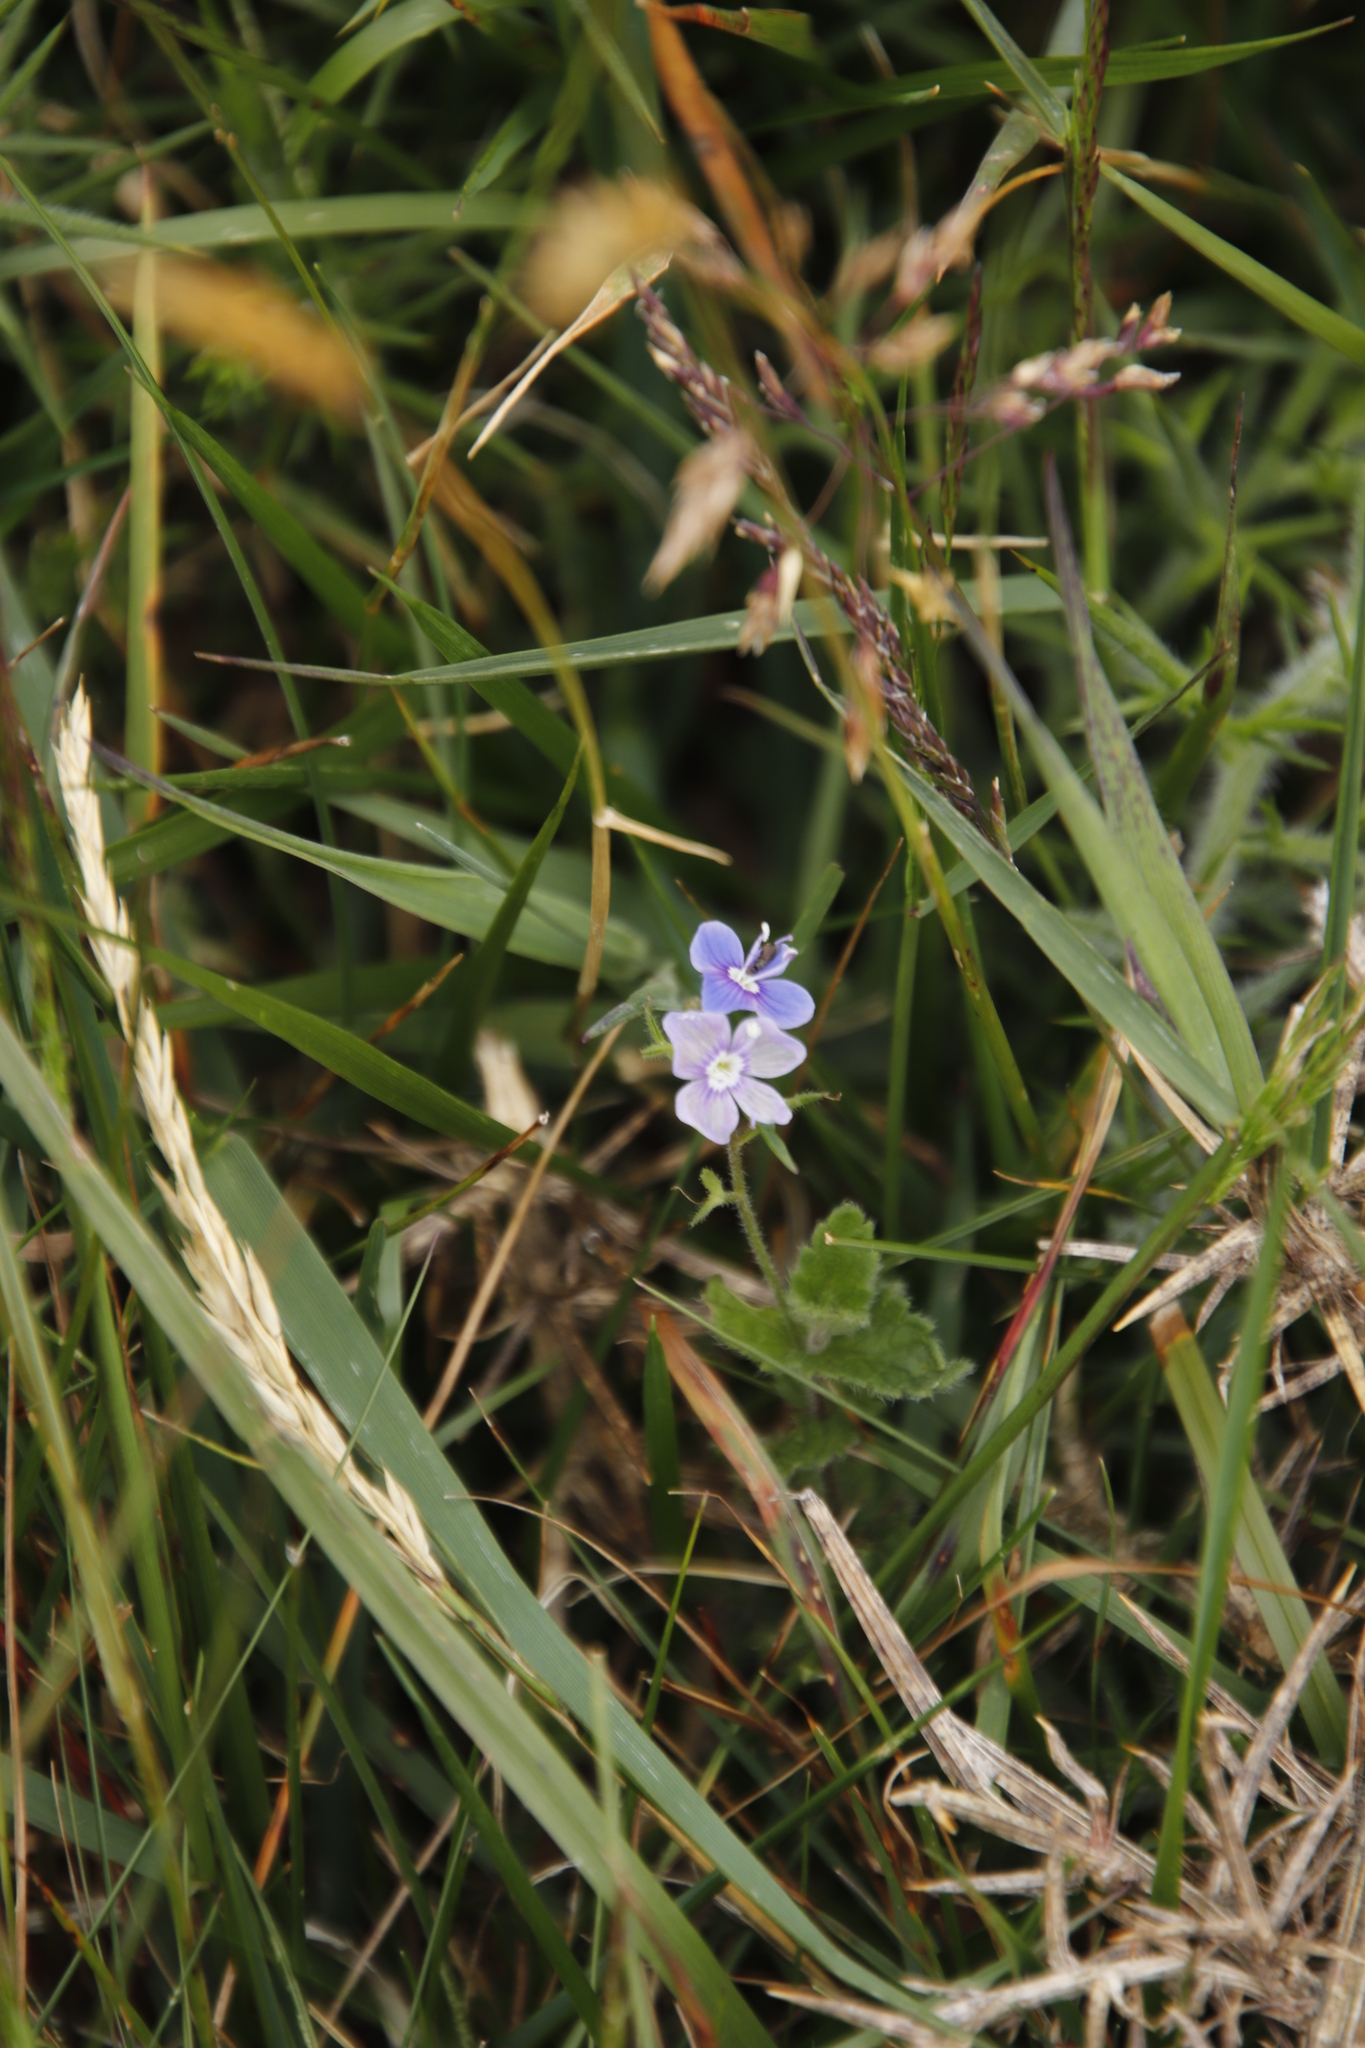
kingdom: Plantae
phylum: Tracheophyta
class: Magnoliopsida
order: Lamiales
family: Plantaginaceae
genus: Veronica
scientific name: Veronica chamaedrys
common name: Germander speedwell
